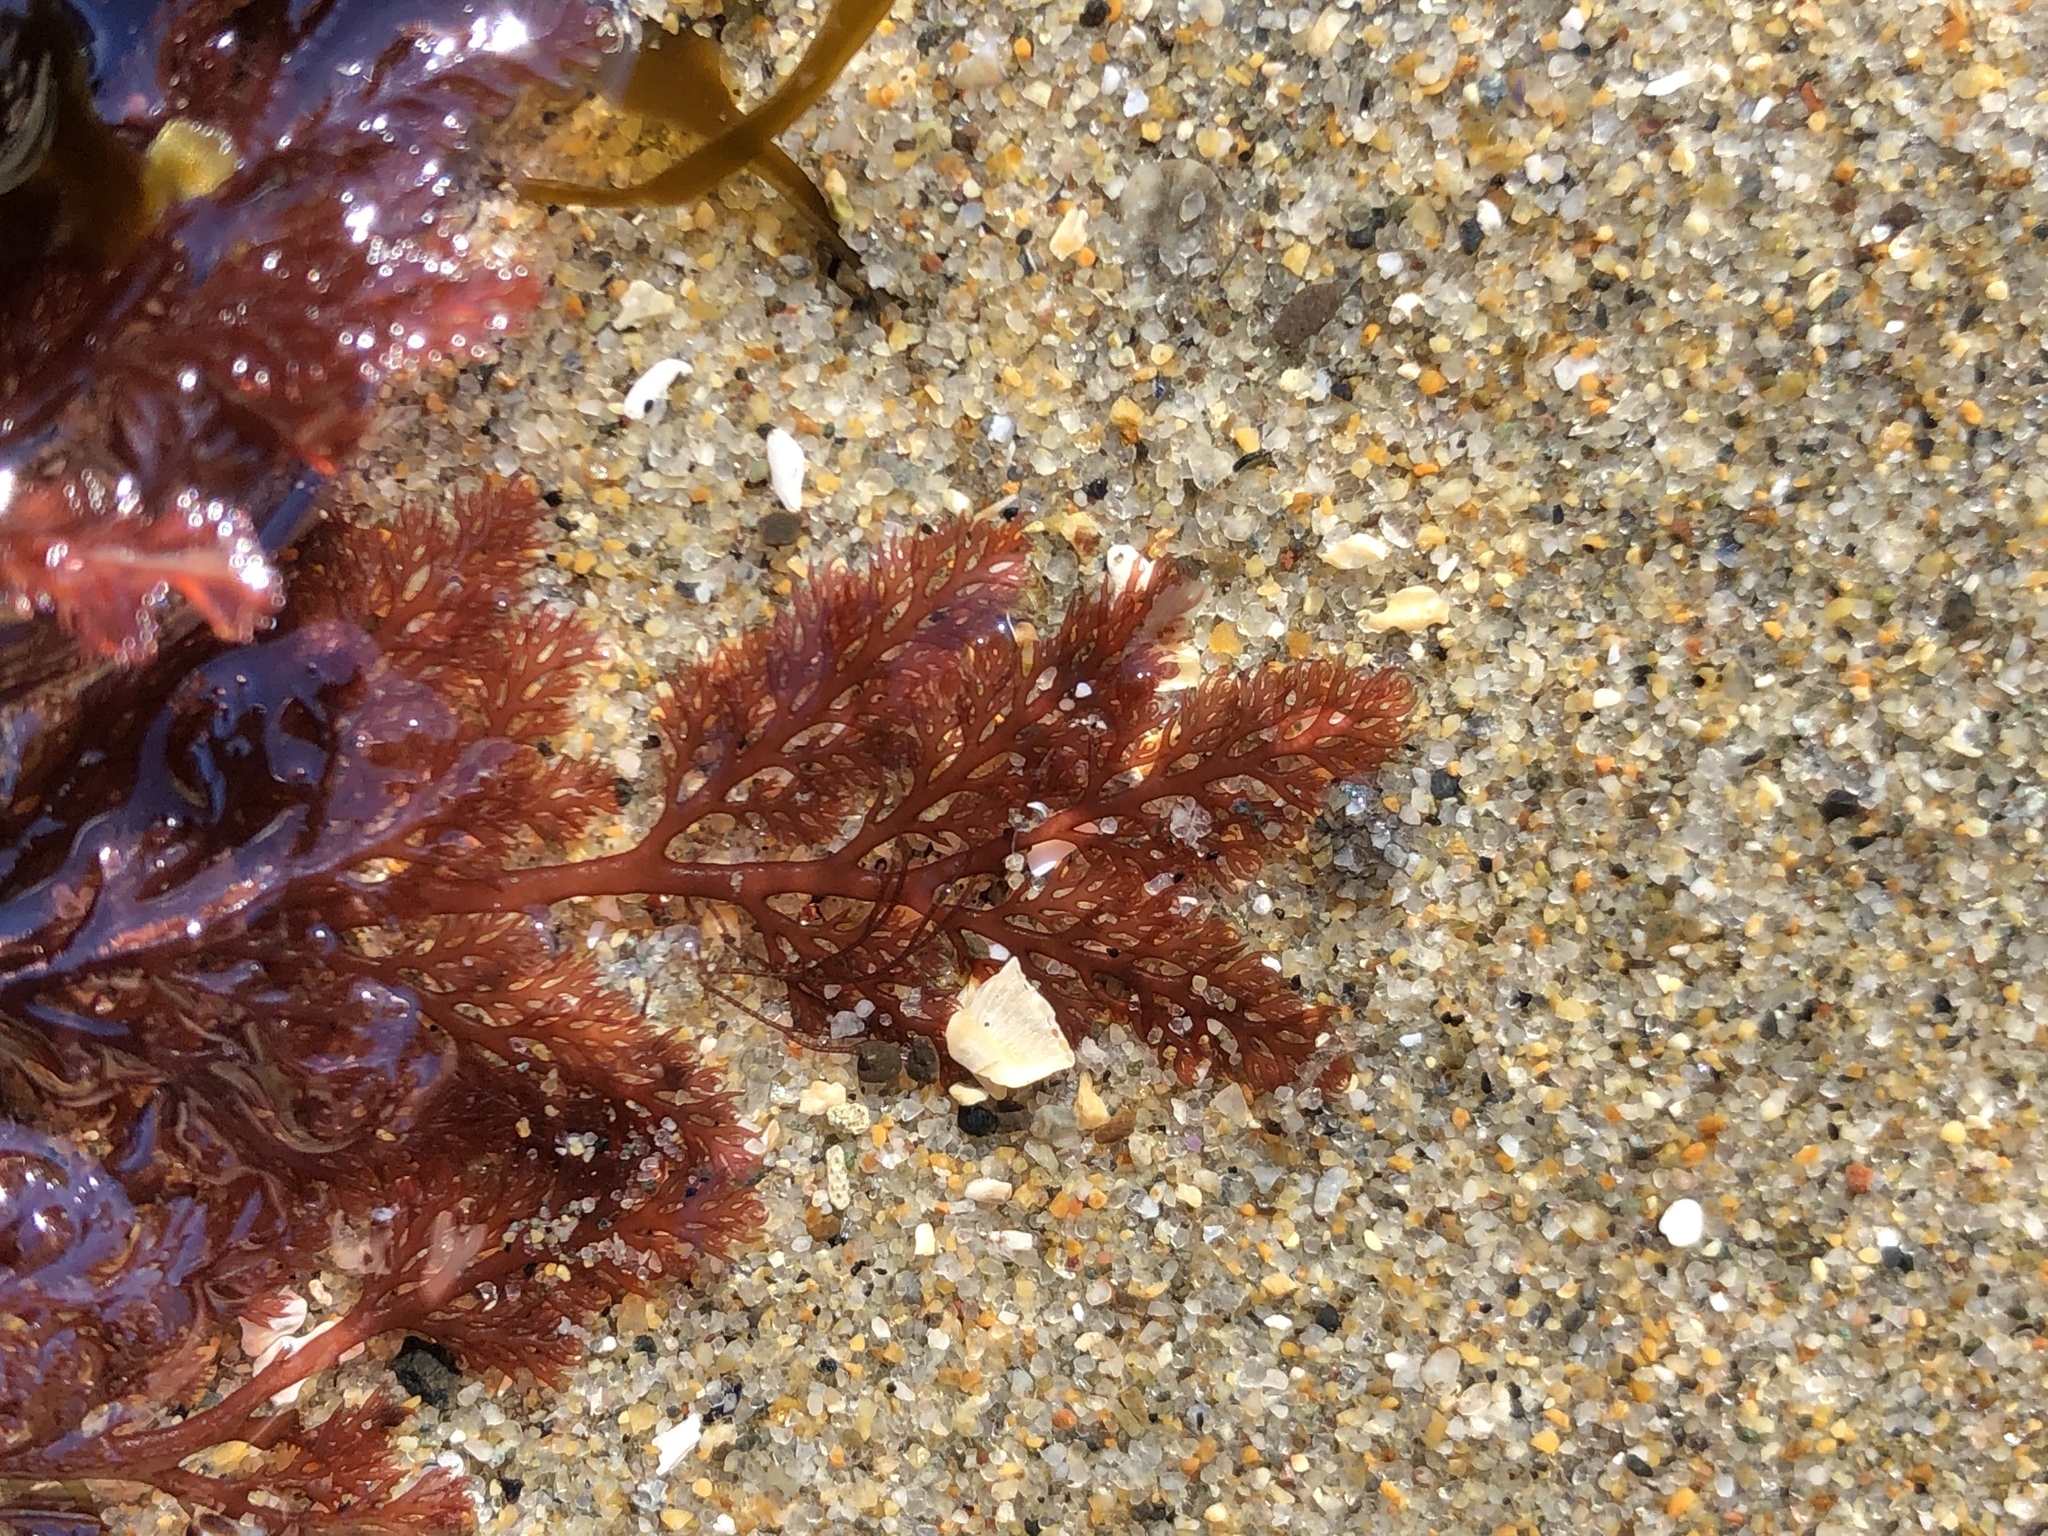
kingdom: Plantae
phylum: Rhodophyta
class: Florideophyceae
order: Ceramiales
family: Ceramiaceae
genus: Microcladia
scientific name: Microcladia coulteri
